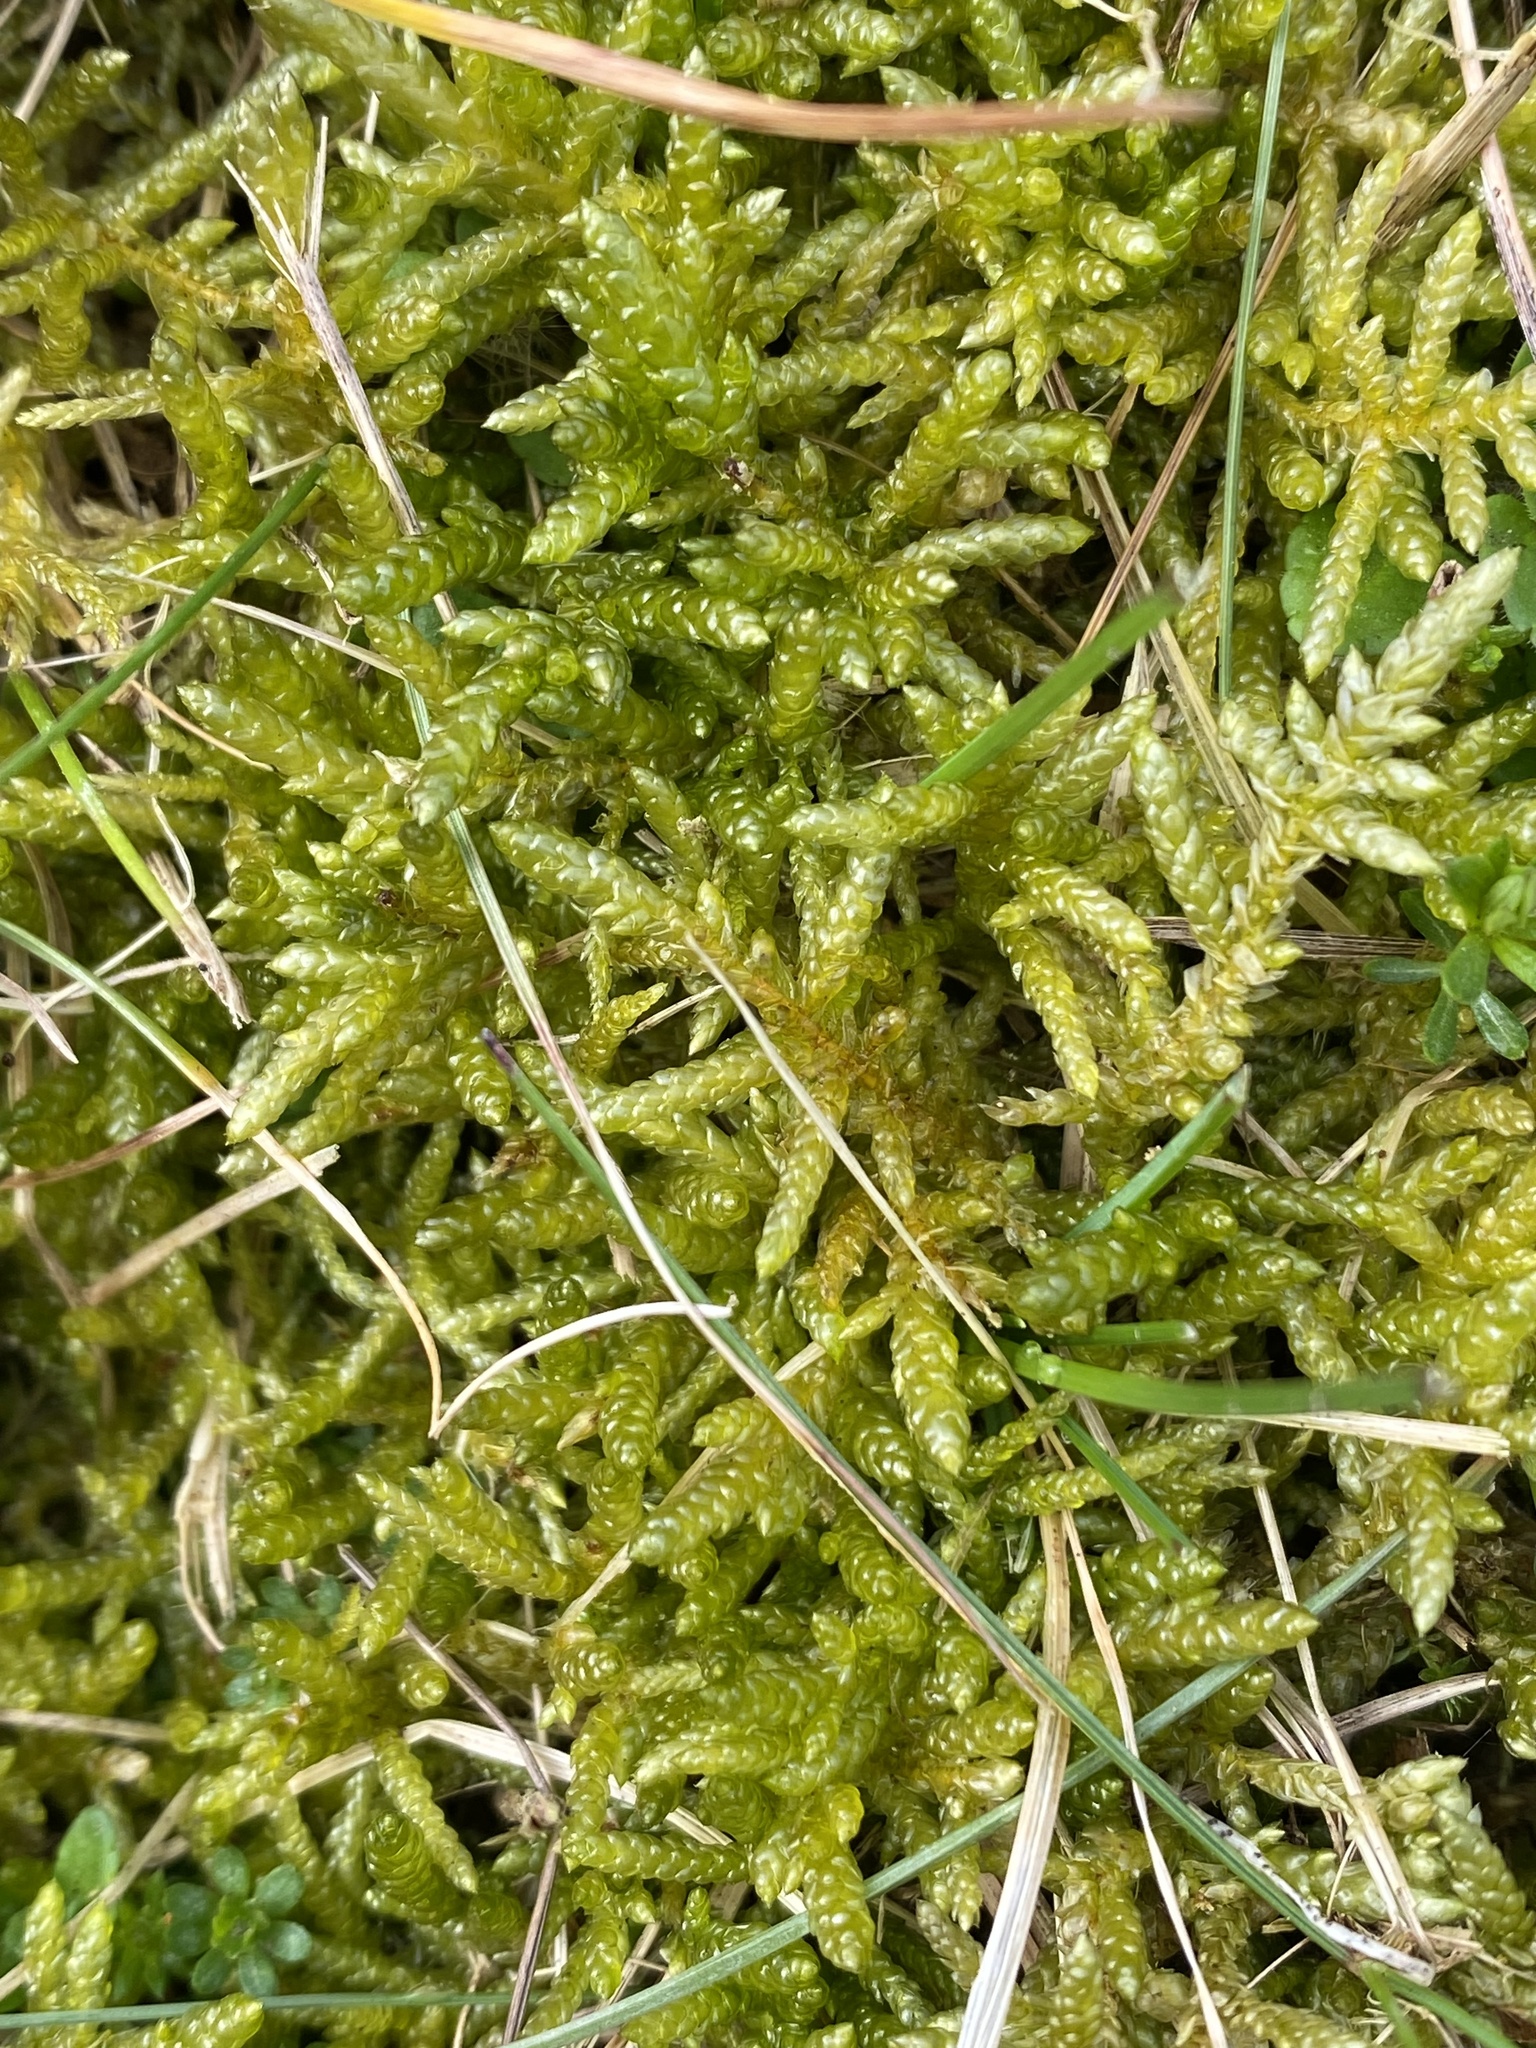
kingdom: Plantae
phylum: Bryophyta
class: Bryopsida
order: Hypnales
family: Brachytheciaceae
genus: Pseudoscleropodium
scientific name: Pseudoscleropodium purum
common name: Neat feather-moss
